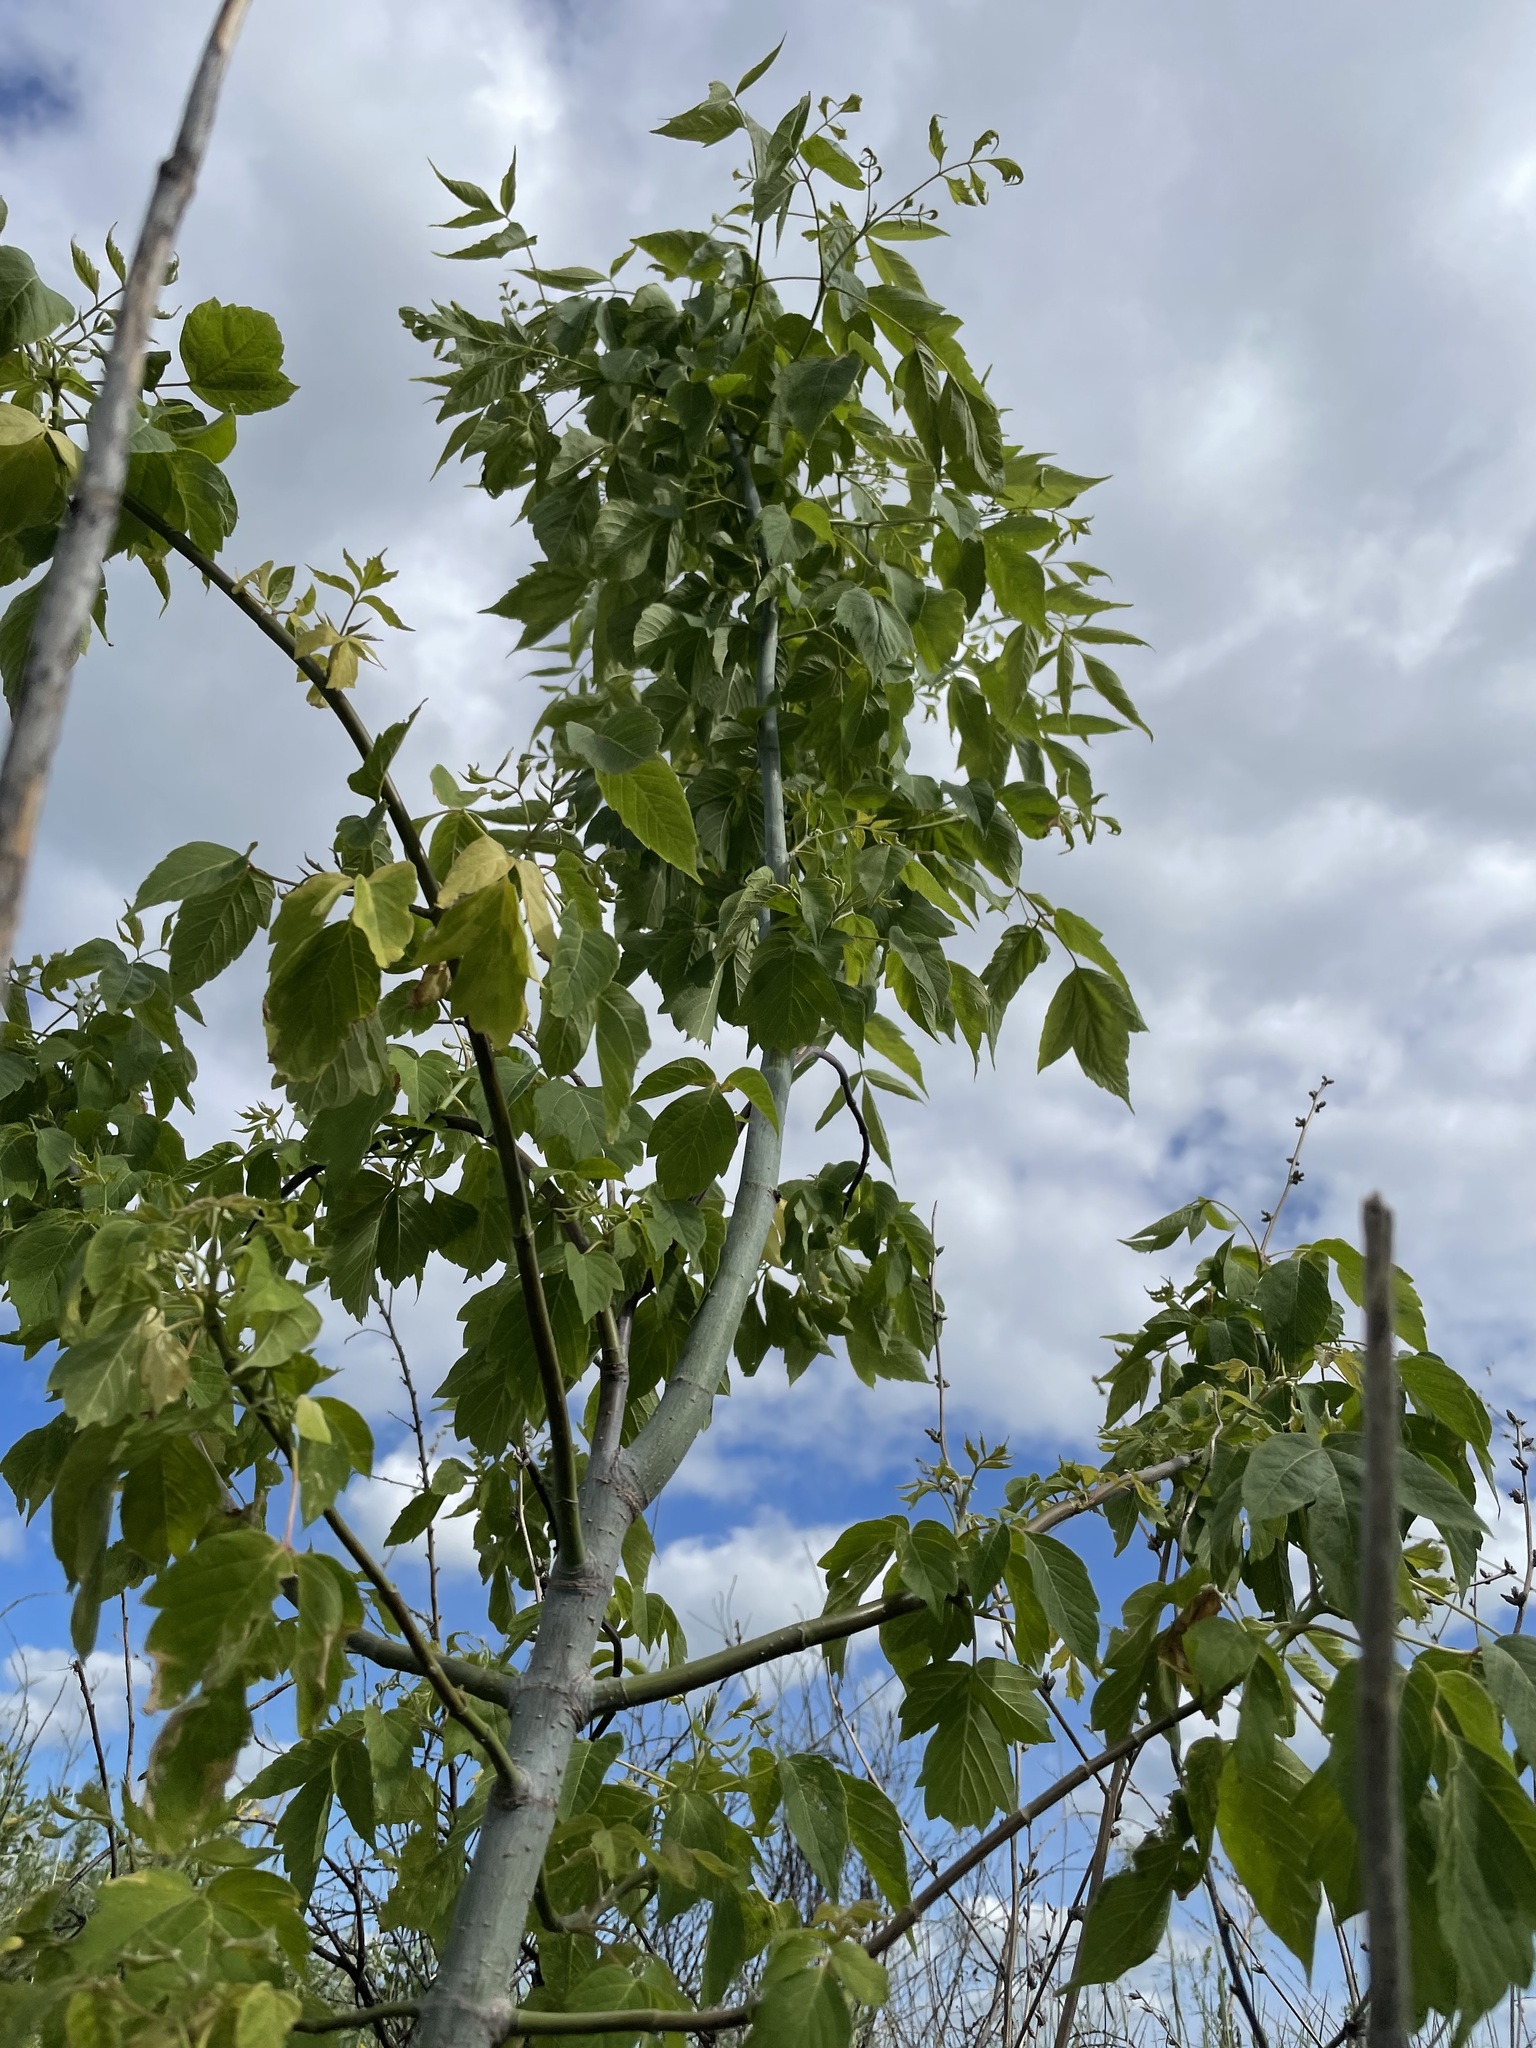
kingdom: Plantae
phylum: Tracheophyta
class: Magnoliopsida
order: Sapindales
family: Sapindaceae
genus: Acer
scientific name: Acer negundo
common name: Ashleaf maple
